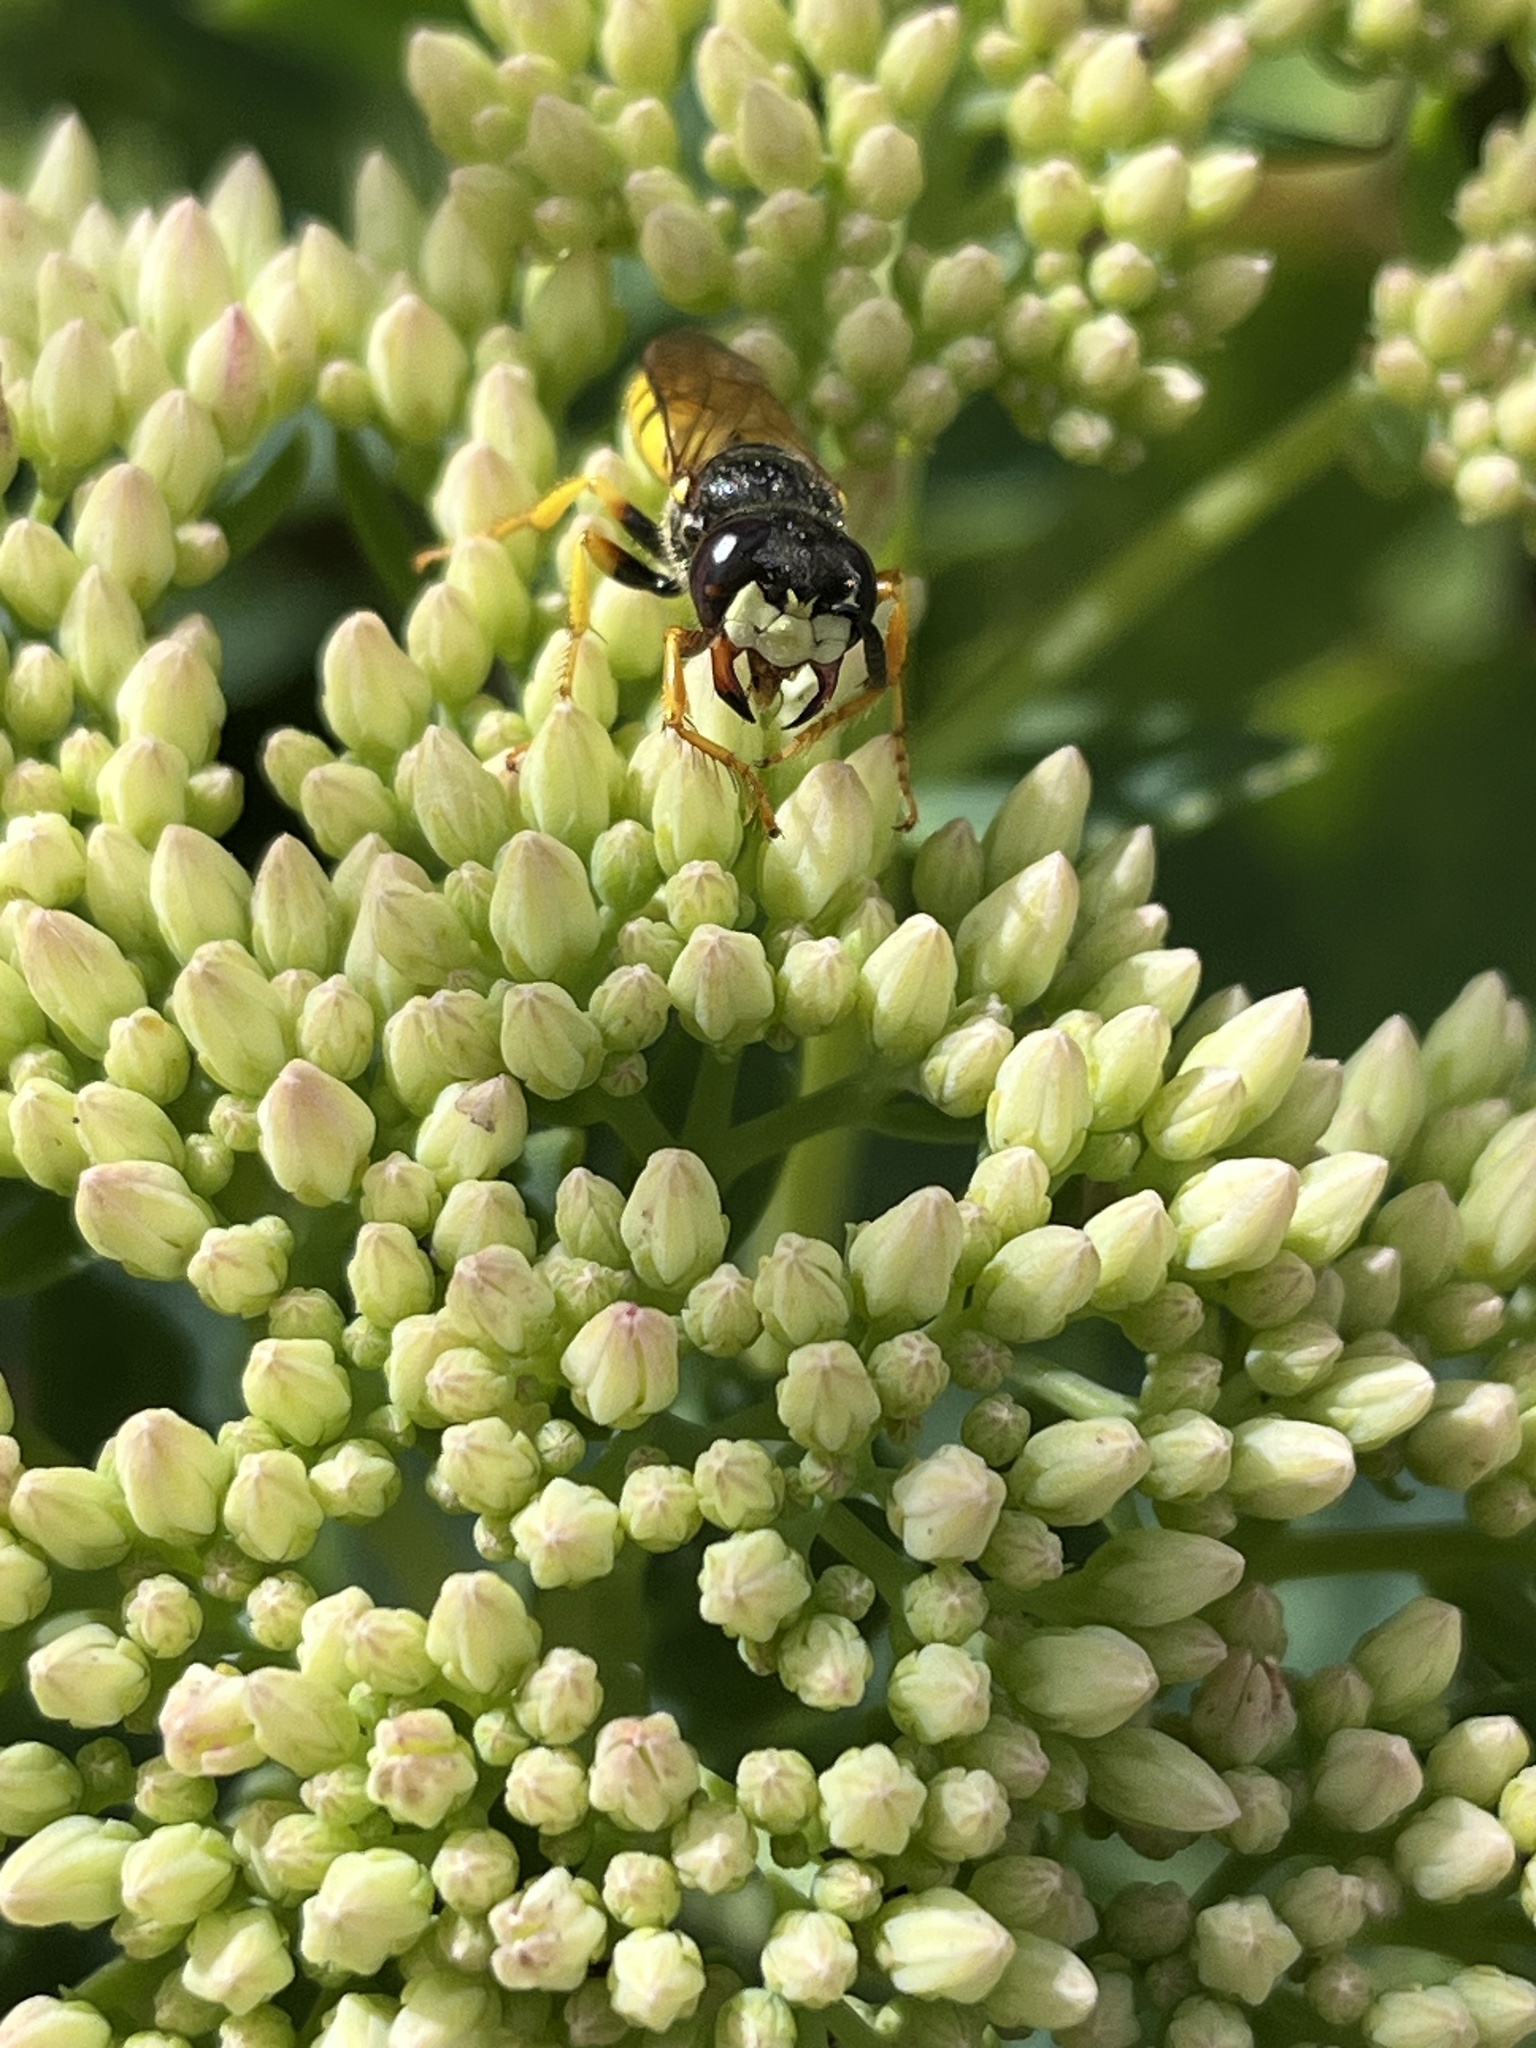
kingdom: Animalia
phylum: Arthropoda
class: Insecta
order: Hymenoptera
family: Crabronidae
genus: Philanthus
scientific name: Philanthus triangulum
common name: Bee wolf
